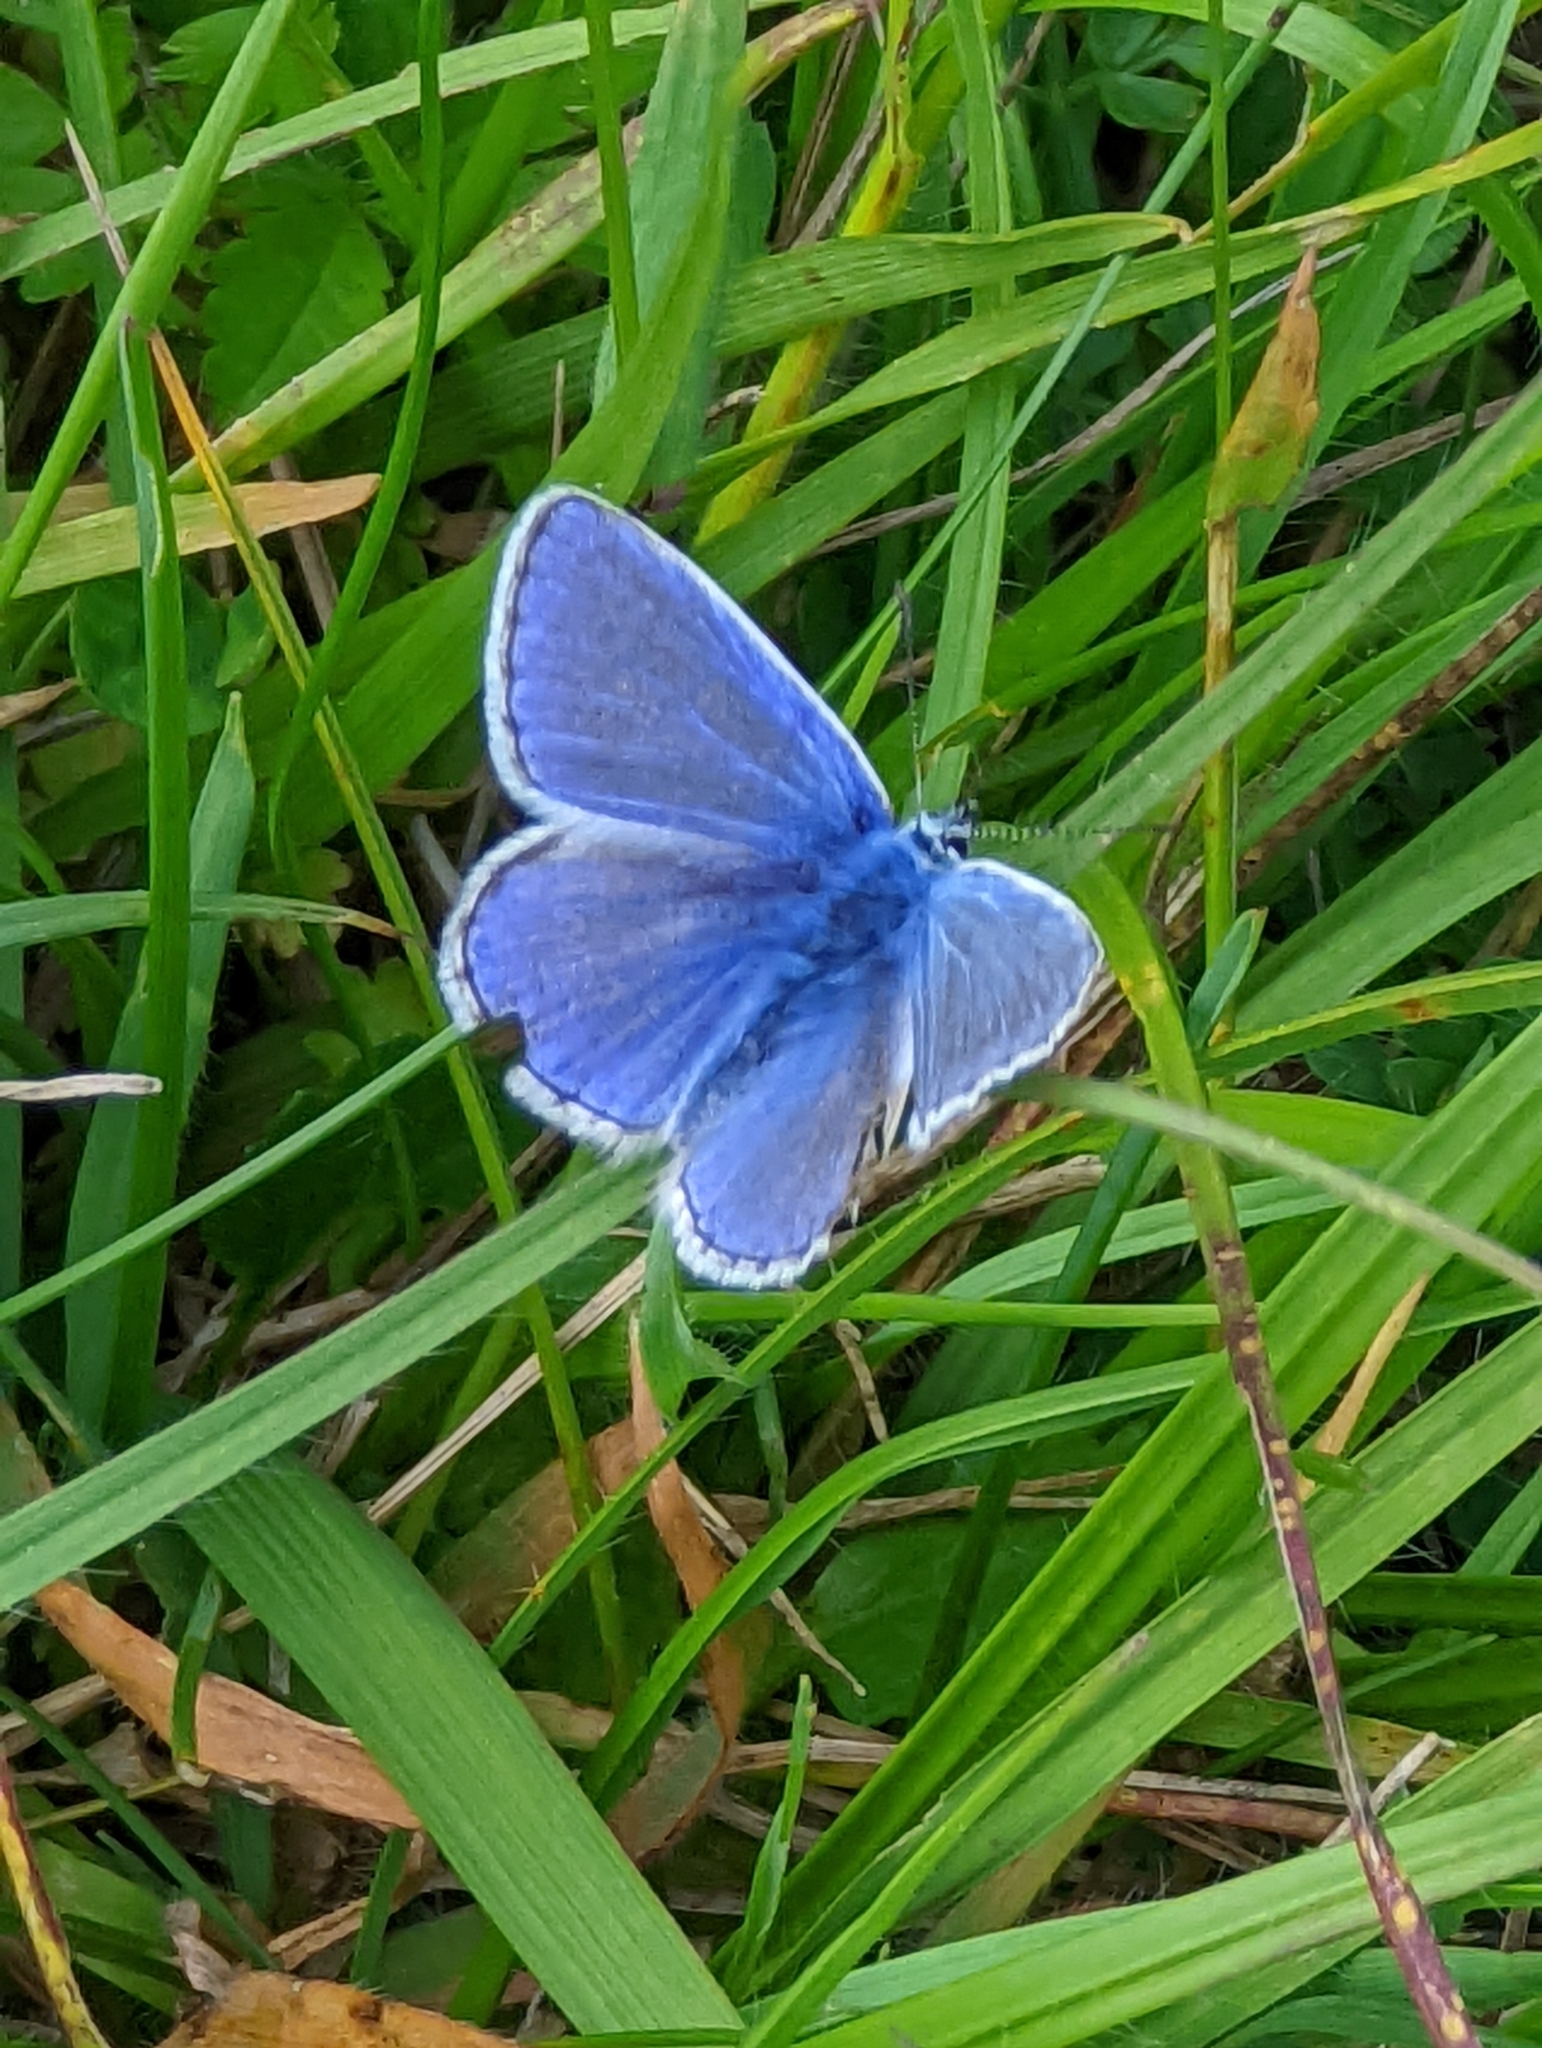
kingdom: Animalia
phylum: Arthropoda
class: Insecta
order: Lepidoptera
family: Lycaenidae
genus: Polyommatus
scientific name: Polyommatus icarus
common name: Common blue
